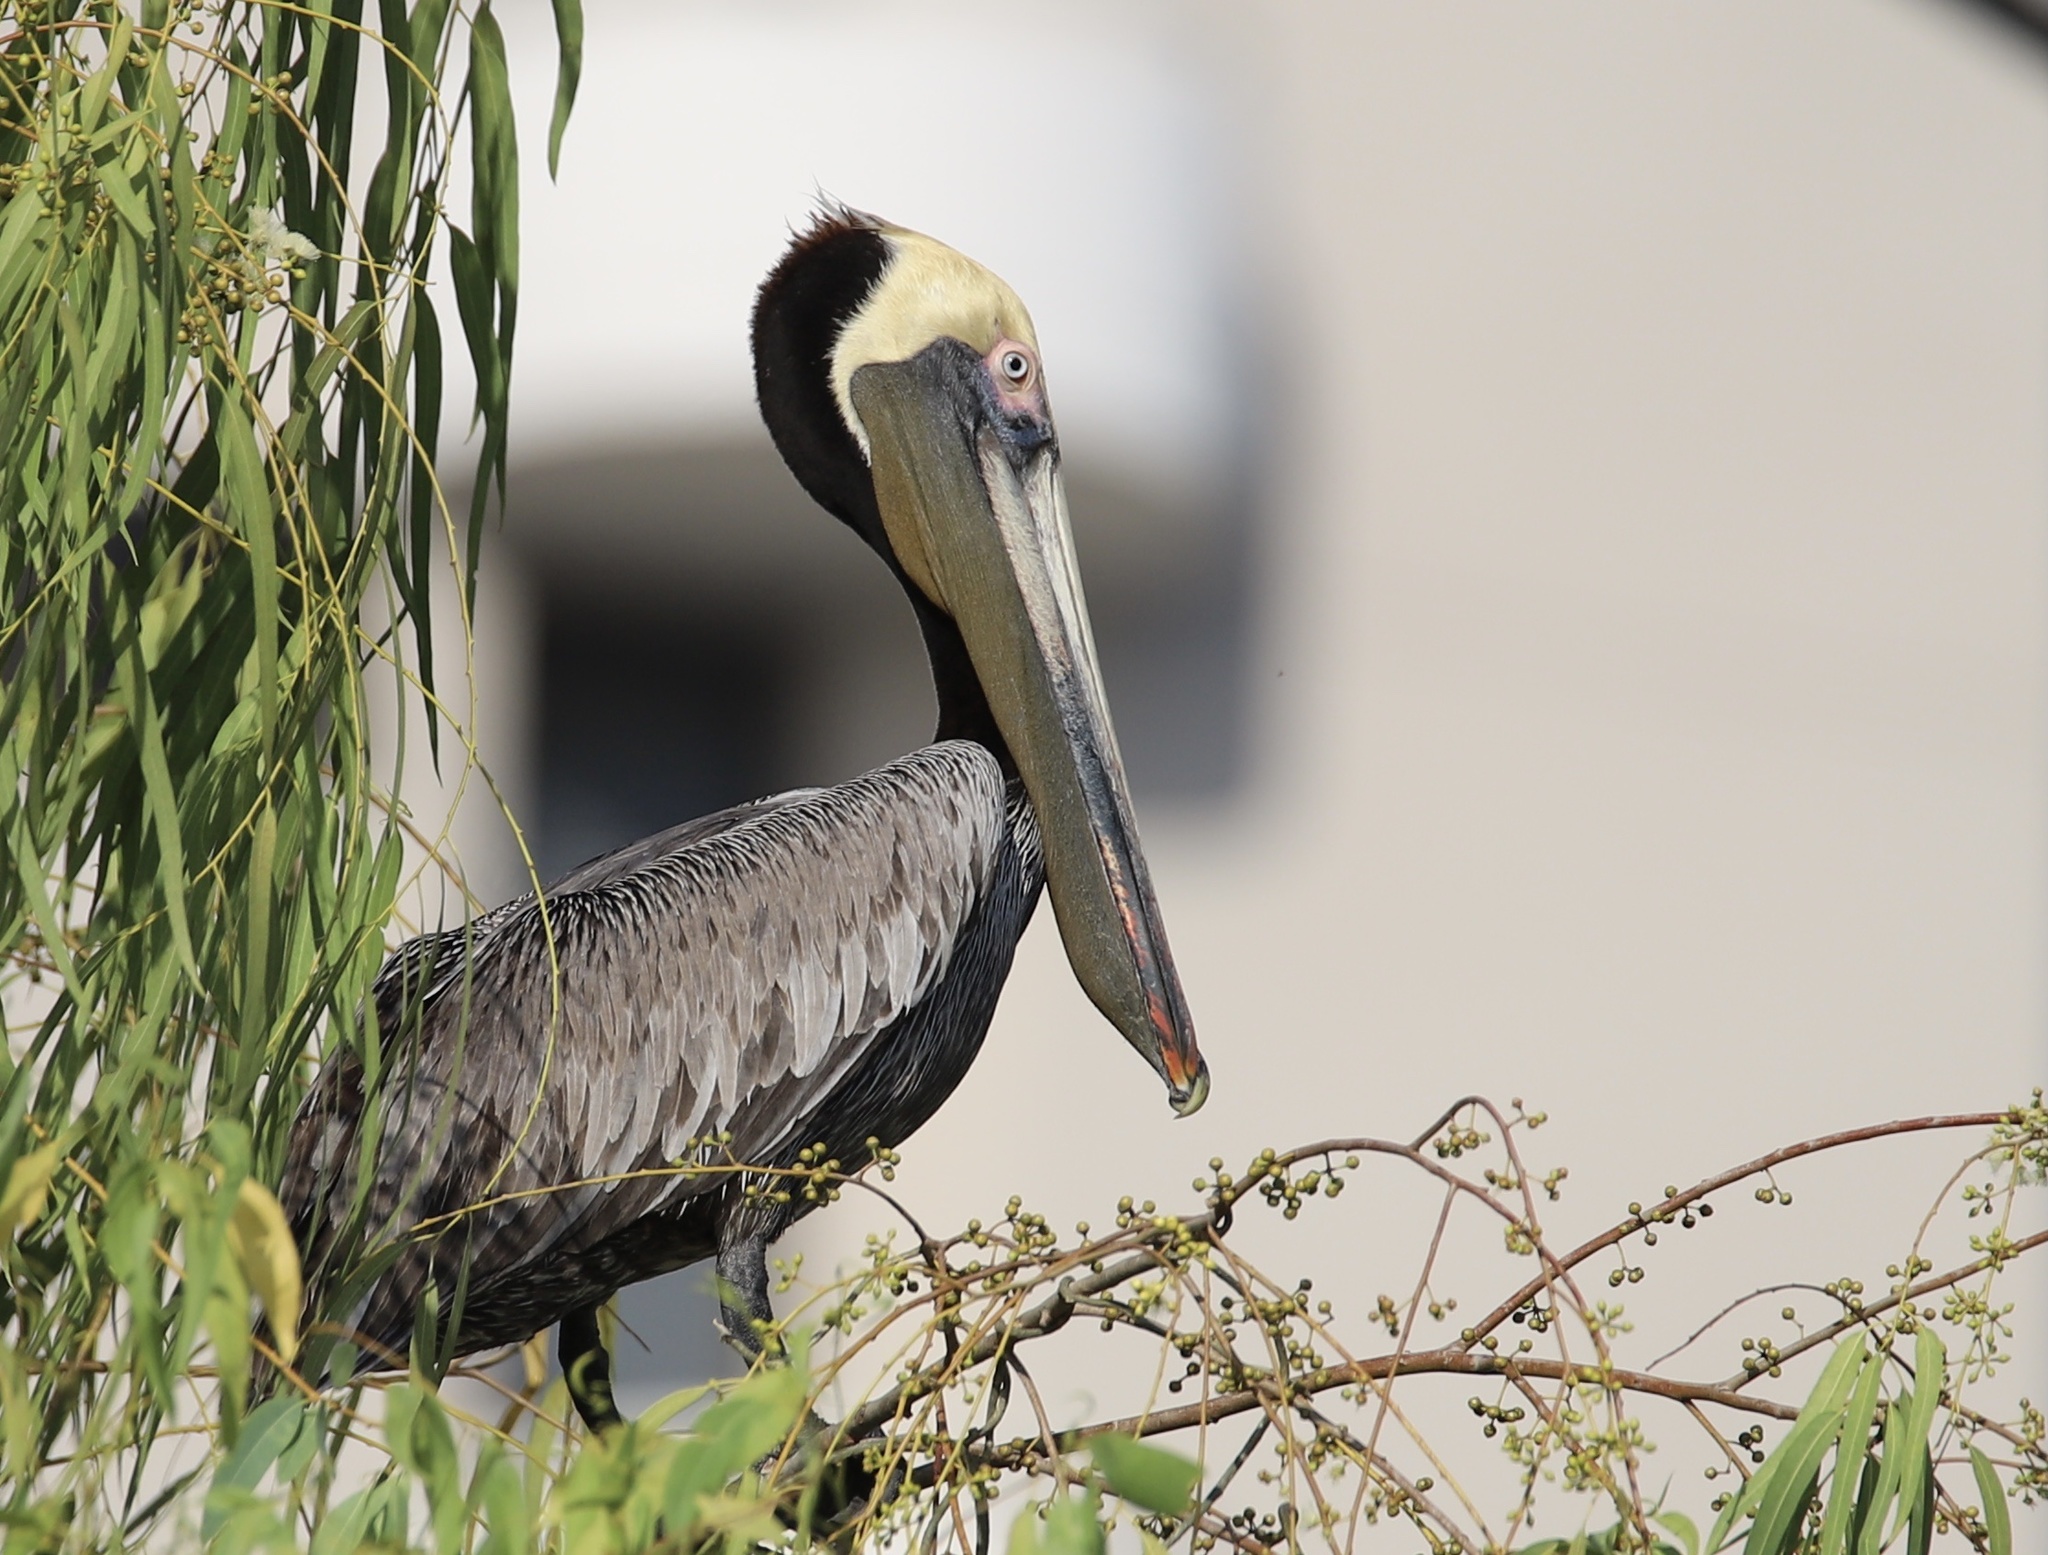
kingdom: Animalia
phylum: Chordata
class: Aves
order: Pelecaniformes
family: Pelecanidae
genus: Pelecanus
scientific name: Pelecanus occidentalis
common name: Brown pelican
